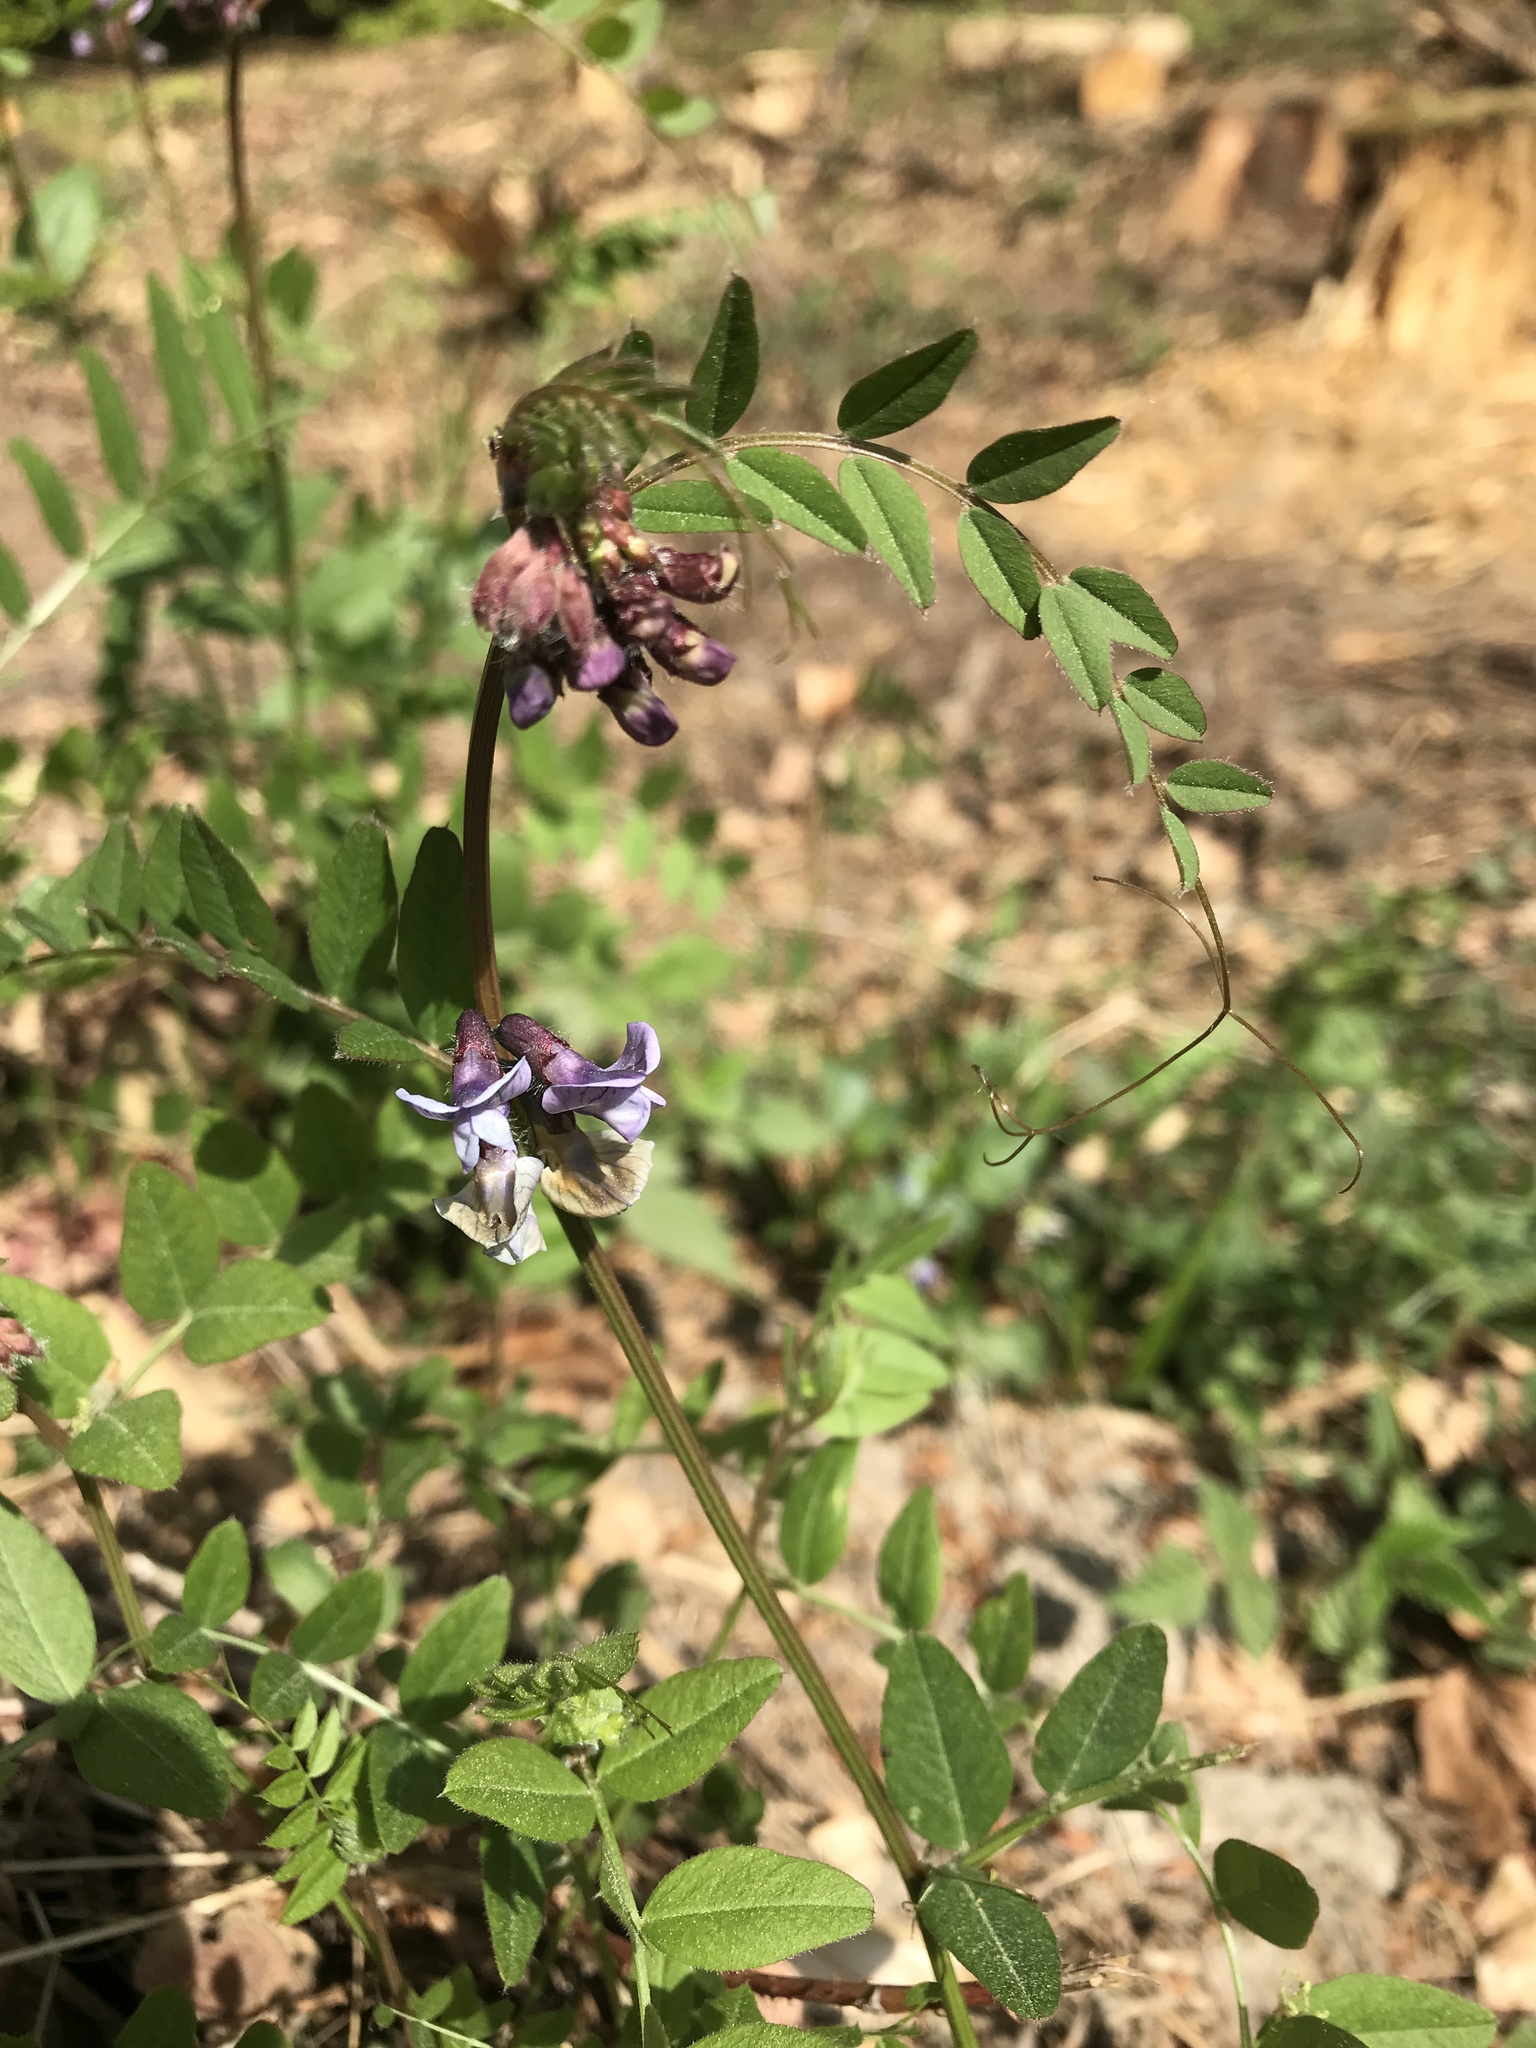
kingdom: Plantae
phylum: Tracheophyta
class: Magnoliopsida
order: Fabales
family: Fabaceae
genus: Vicia
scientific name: Vicia sepium
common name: Bush vetch
